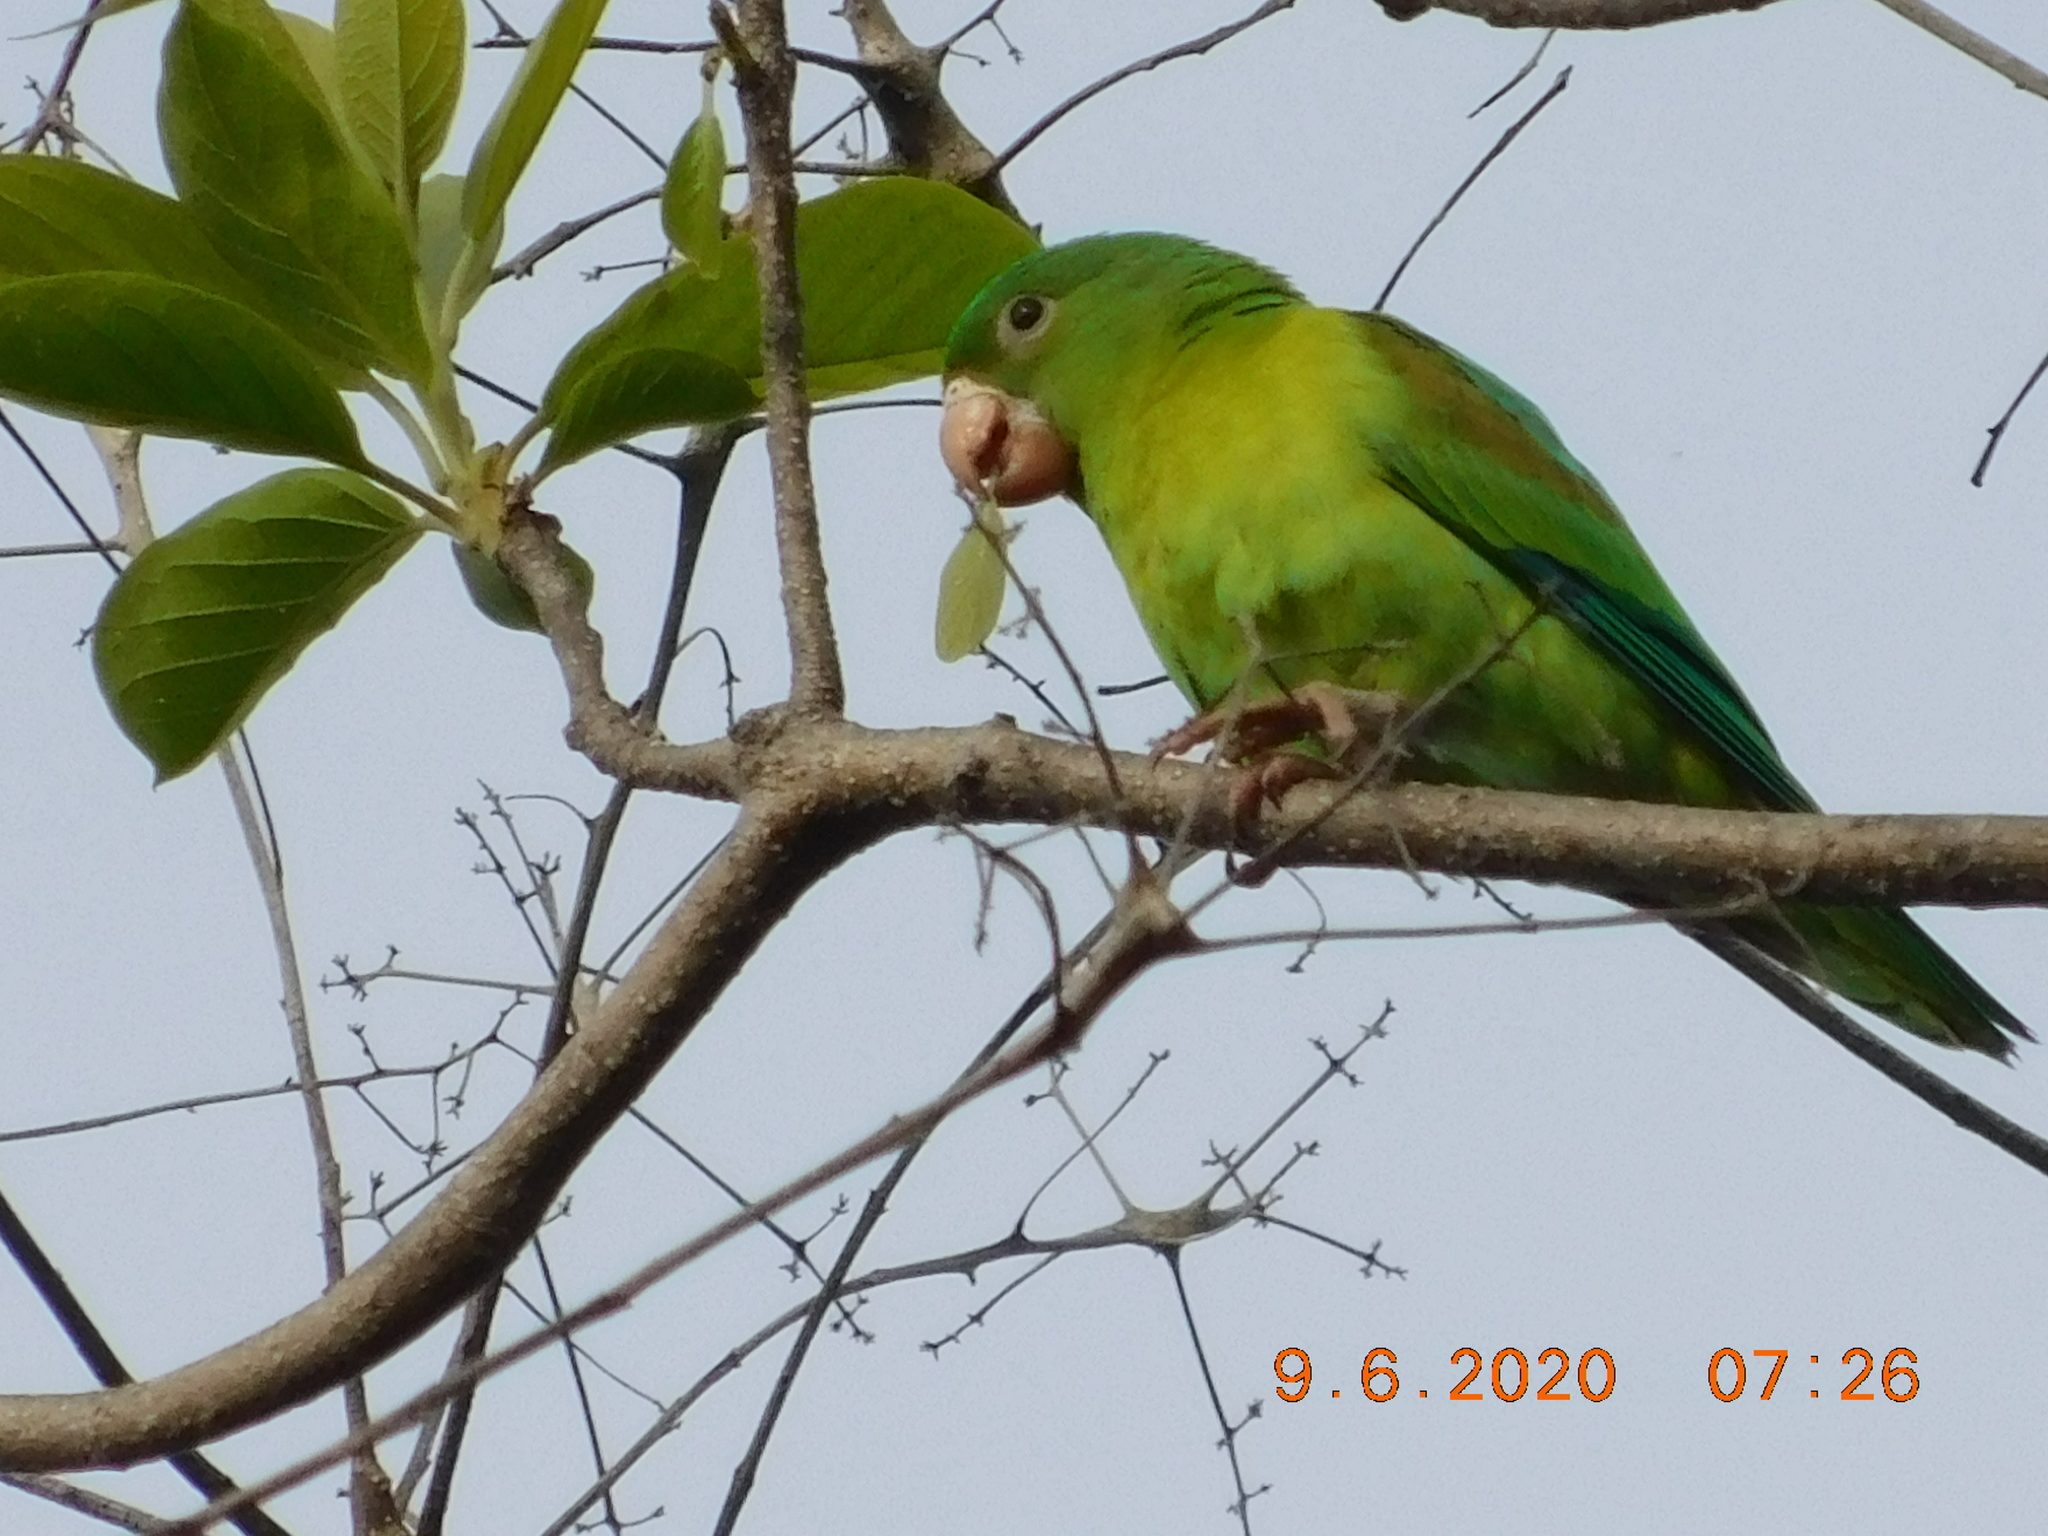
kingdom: Animalia
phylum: Chordata
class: Aves
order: Psittaciformes
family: Psittacidae
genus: Brotogeris
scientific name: Brotogeris jugularis
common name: Orange-chinned parakeet
